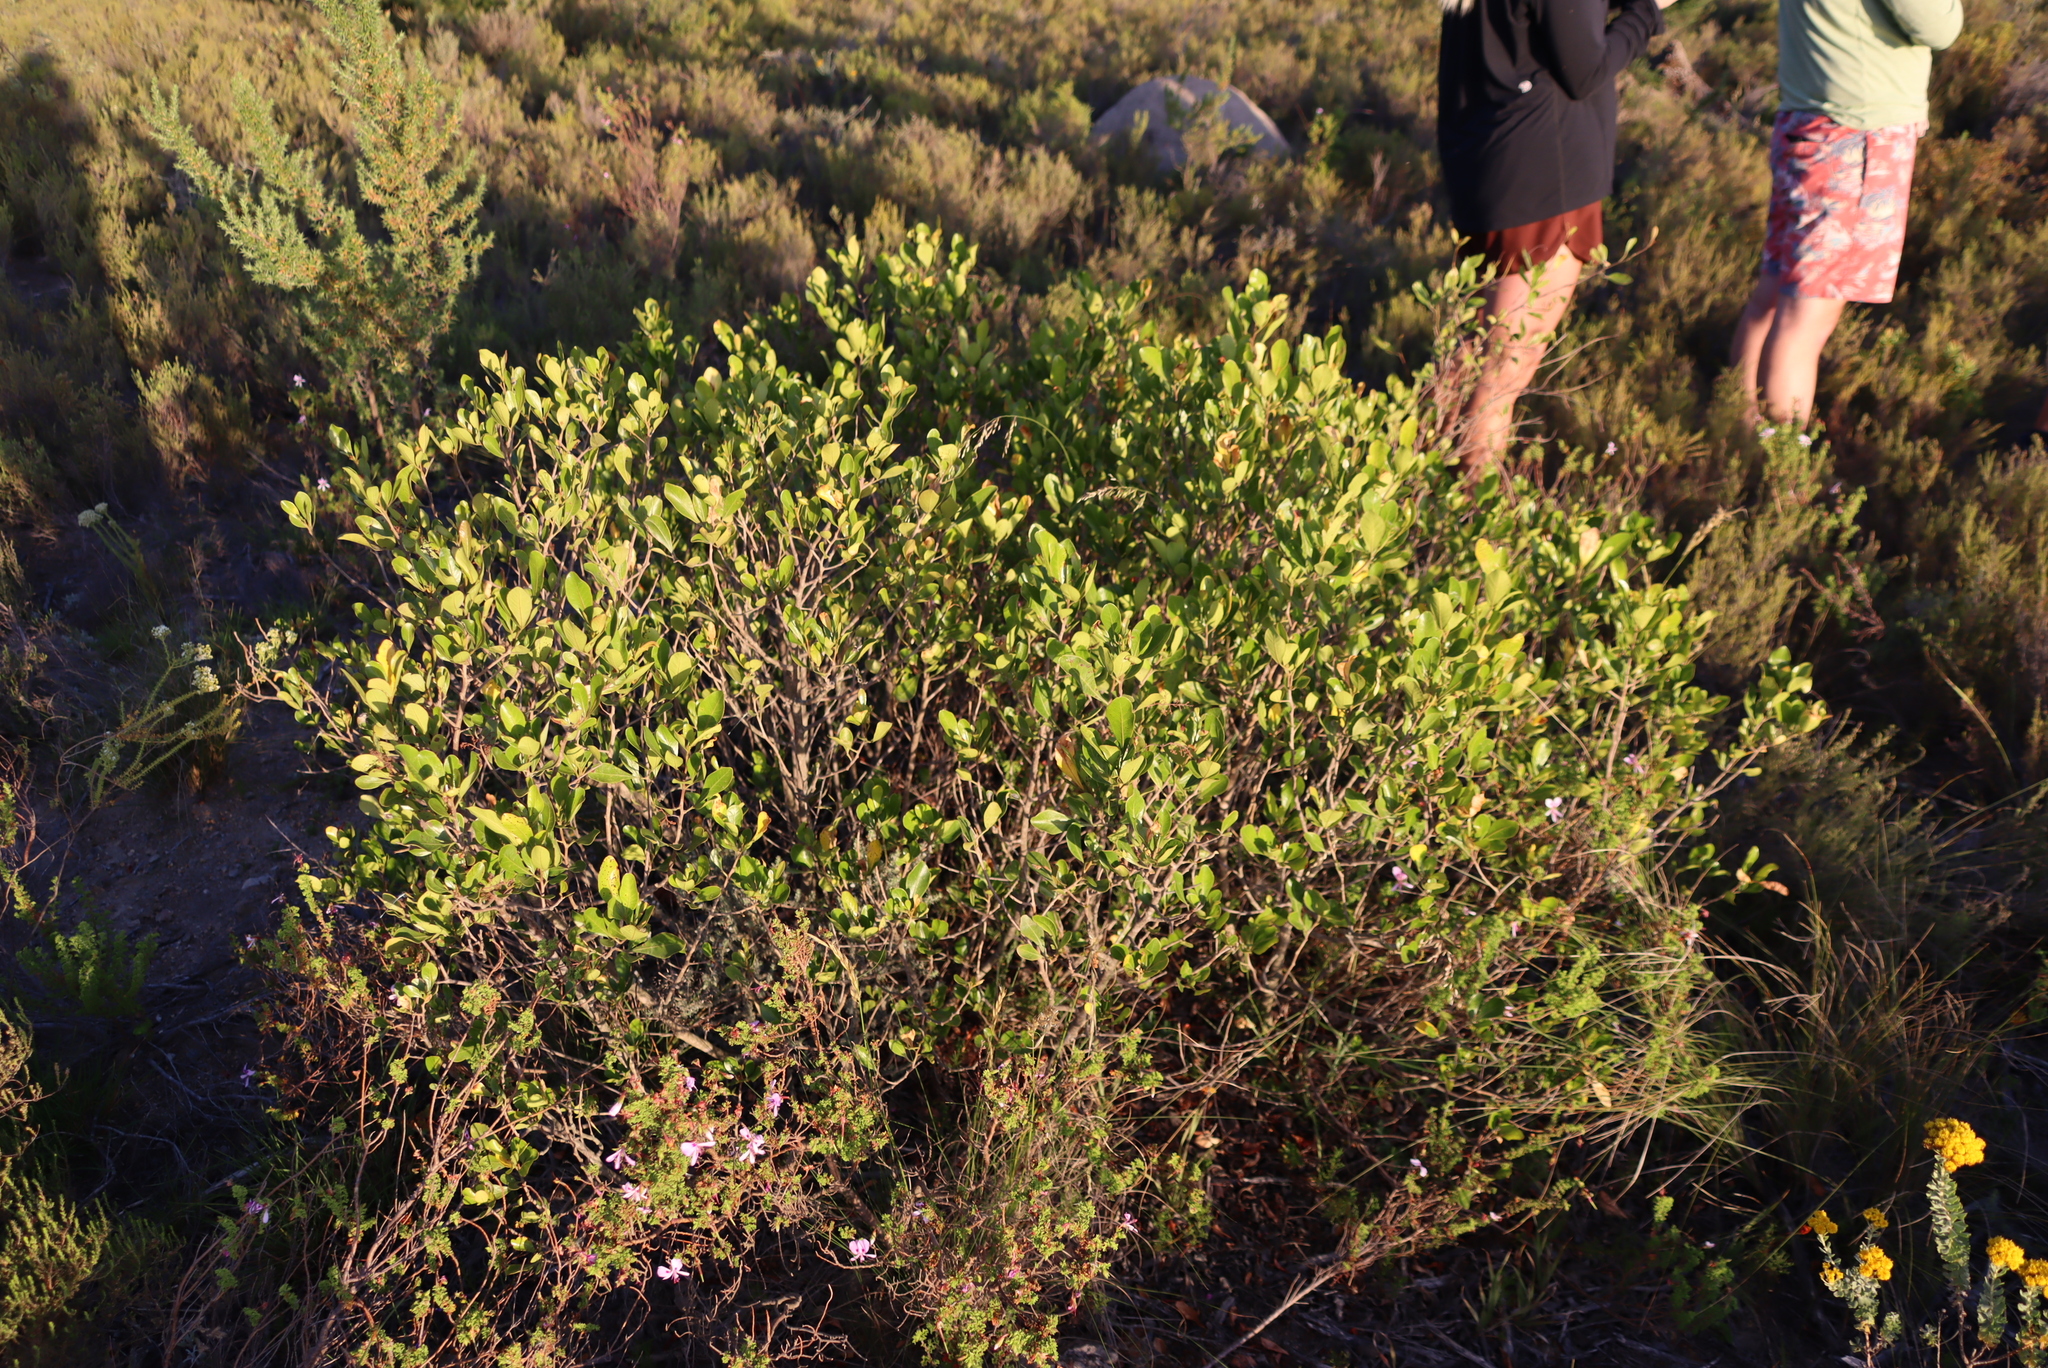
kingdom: Plantae
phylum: Tracheophyta
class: Magnoliopsida
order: Sapindales
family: Anacardiaceae
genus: Searsia
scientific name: Searsia lucida
